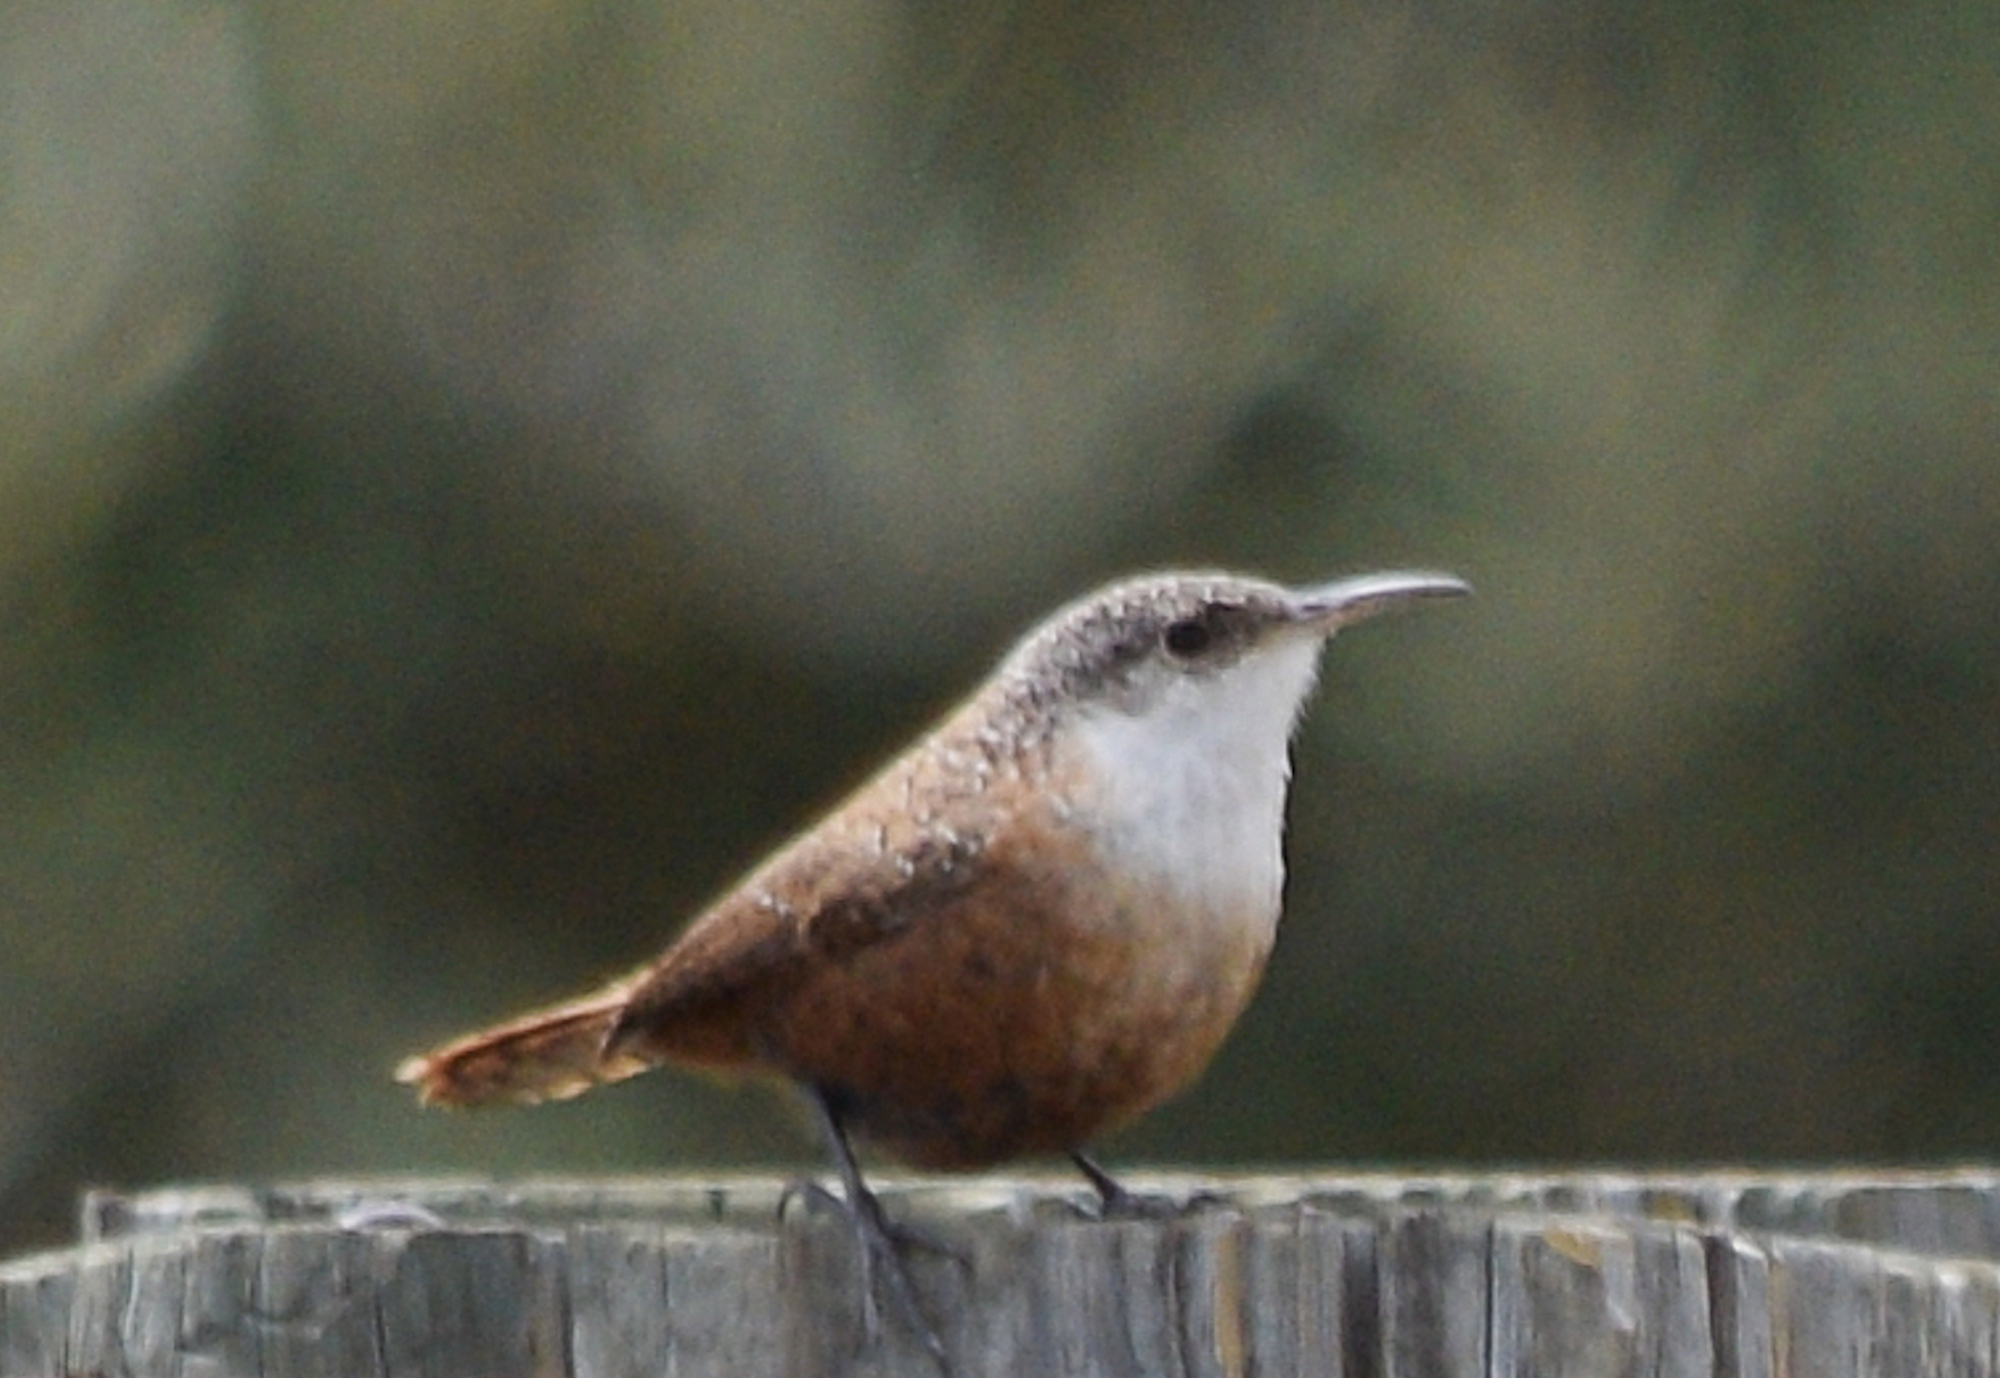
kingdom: Animalia
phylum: Chordata
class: Aves
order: Passeriformes
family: Troglodytidae
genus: Catherpes
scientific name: Catherpes mexicanus
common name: Canyon wren
